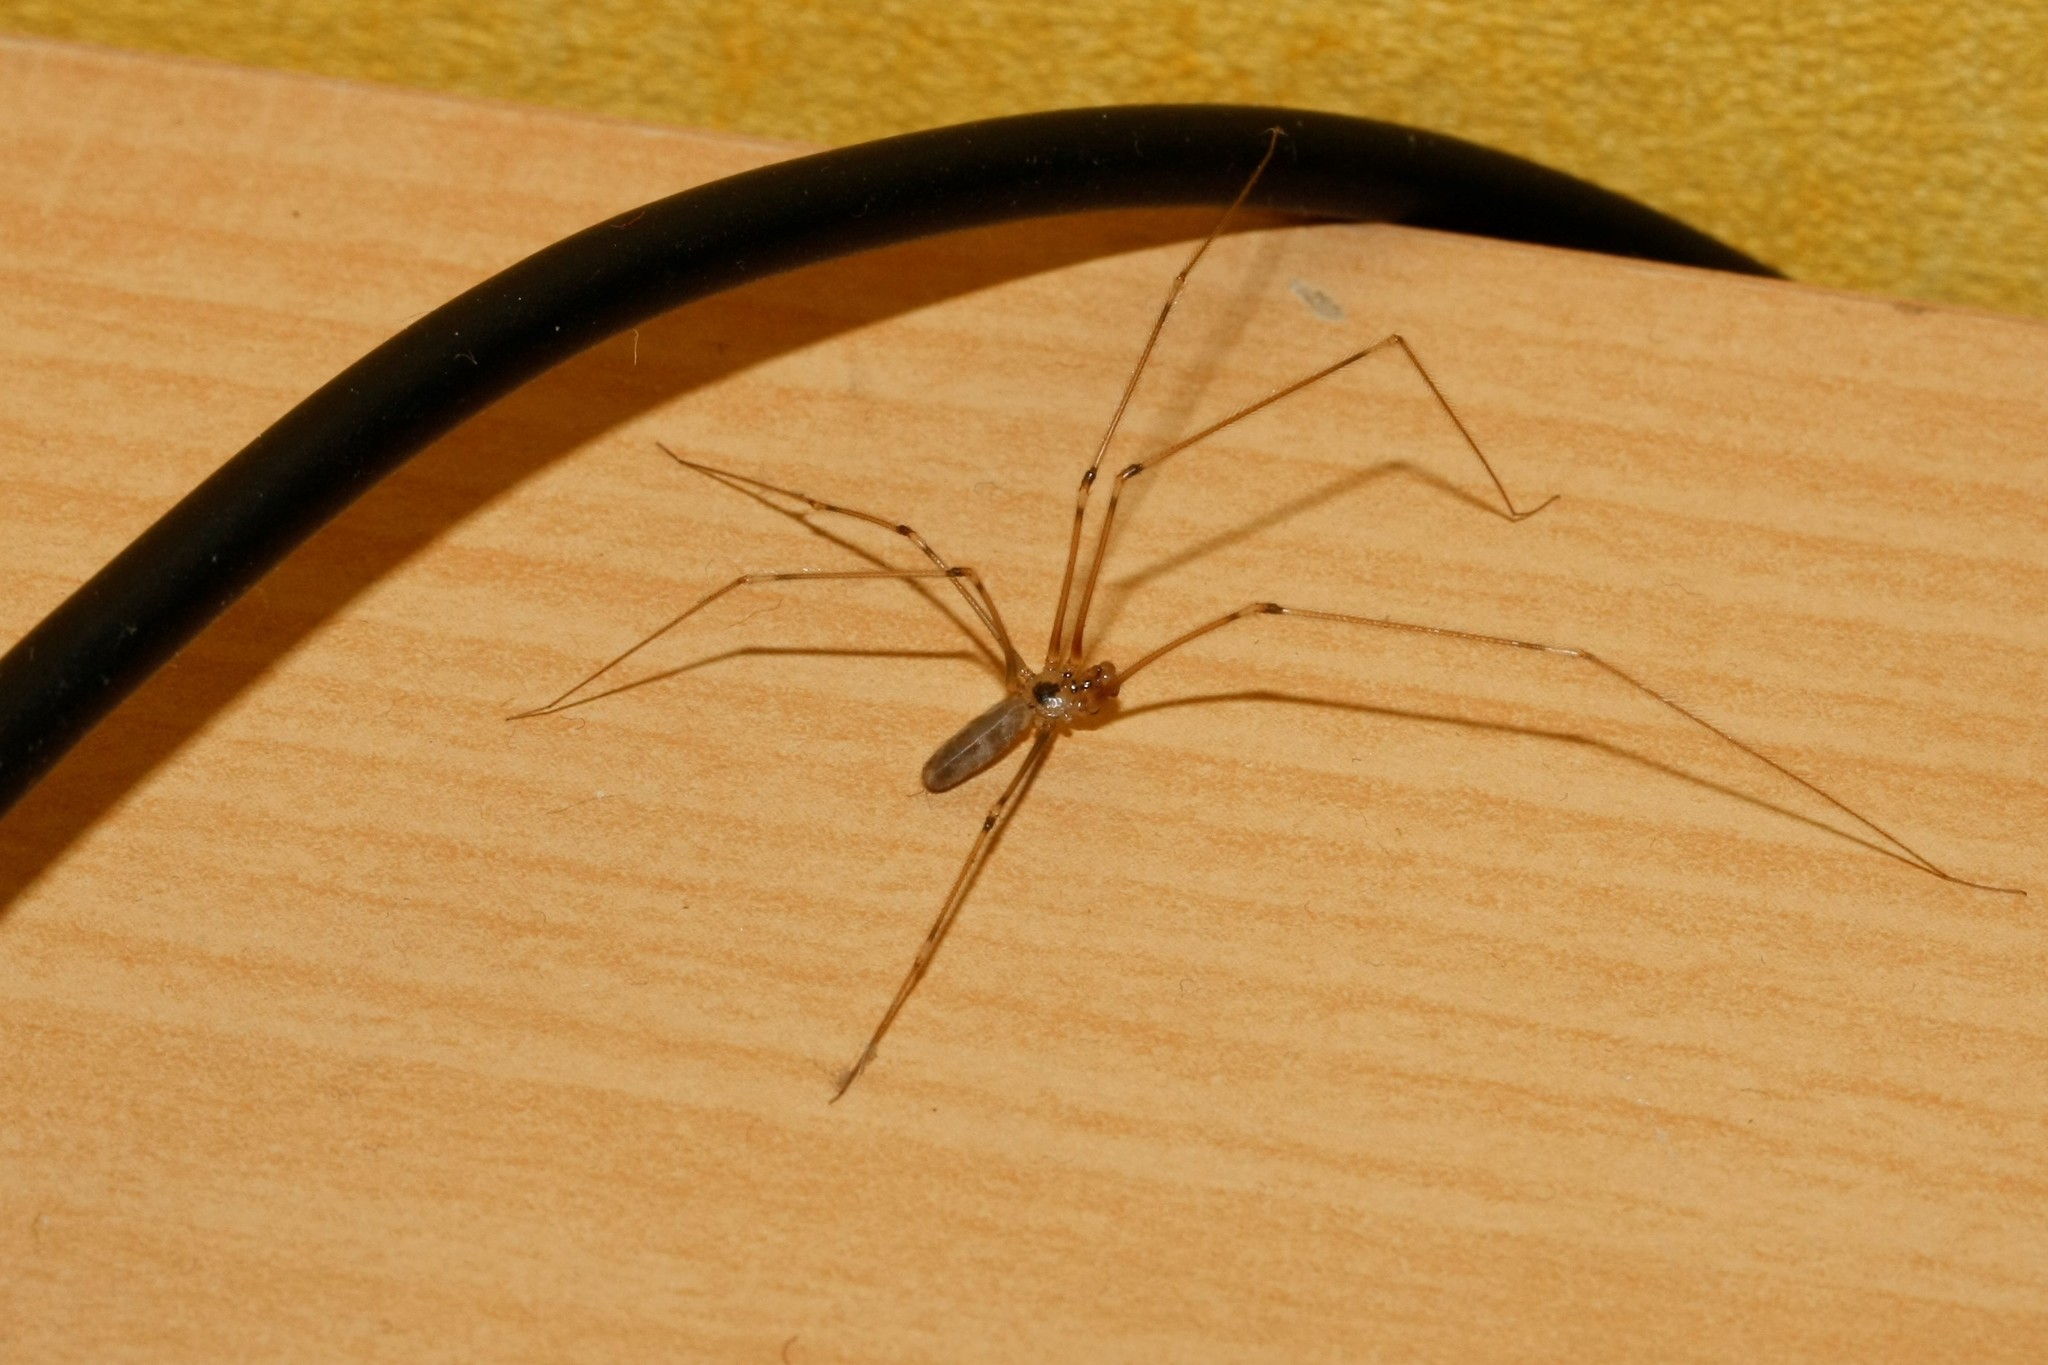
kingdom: Animalia
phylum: Arthropoda
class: Arachnida
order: Araneae
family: Pholcidae
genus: Pholcus
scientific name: Pholcus phalangioides
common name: Longbodied cellar spider
